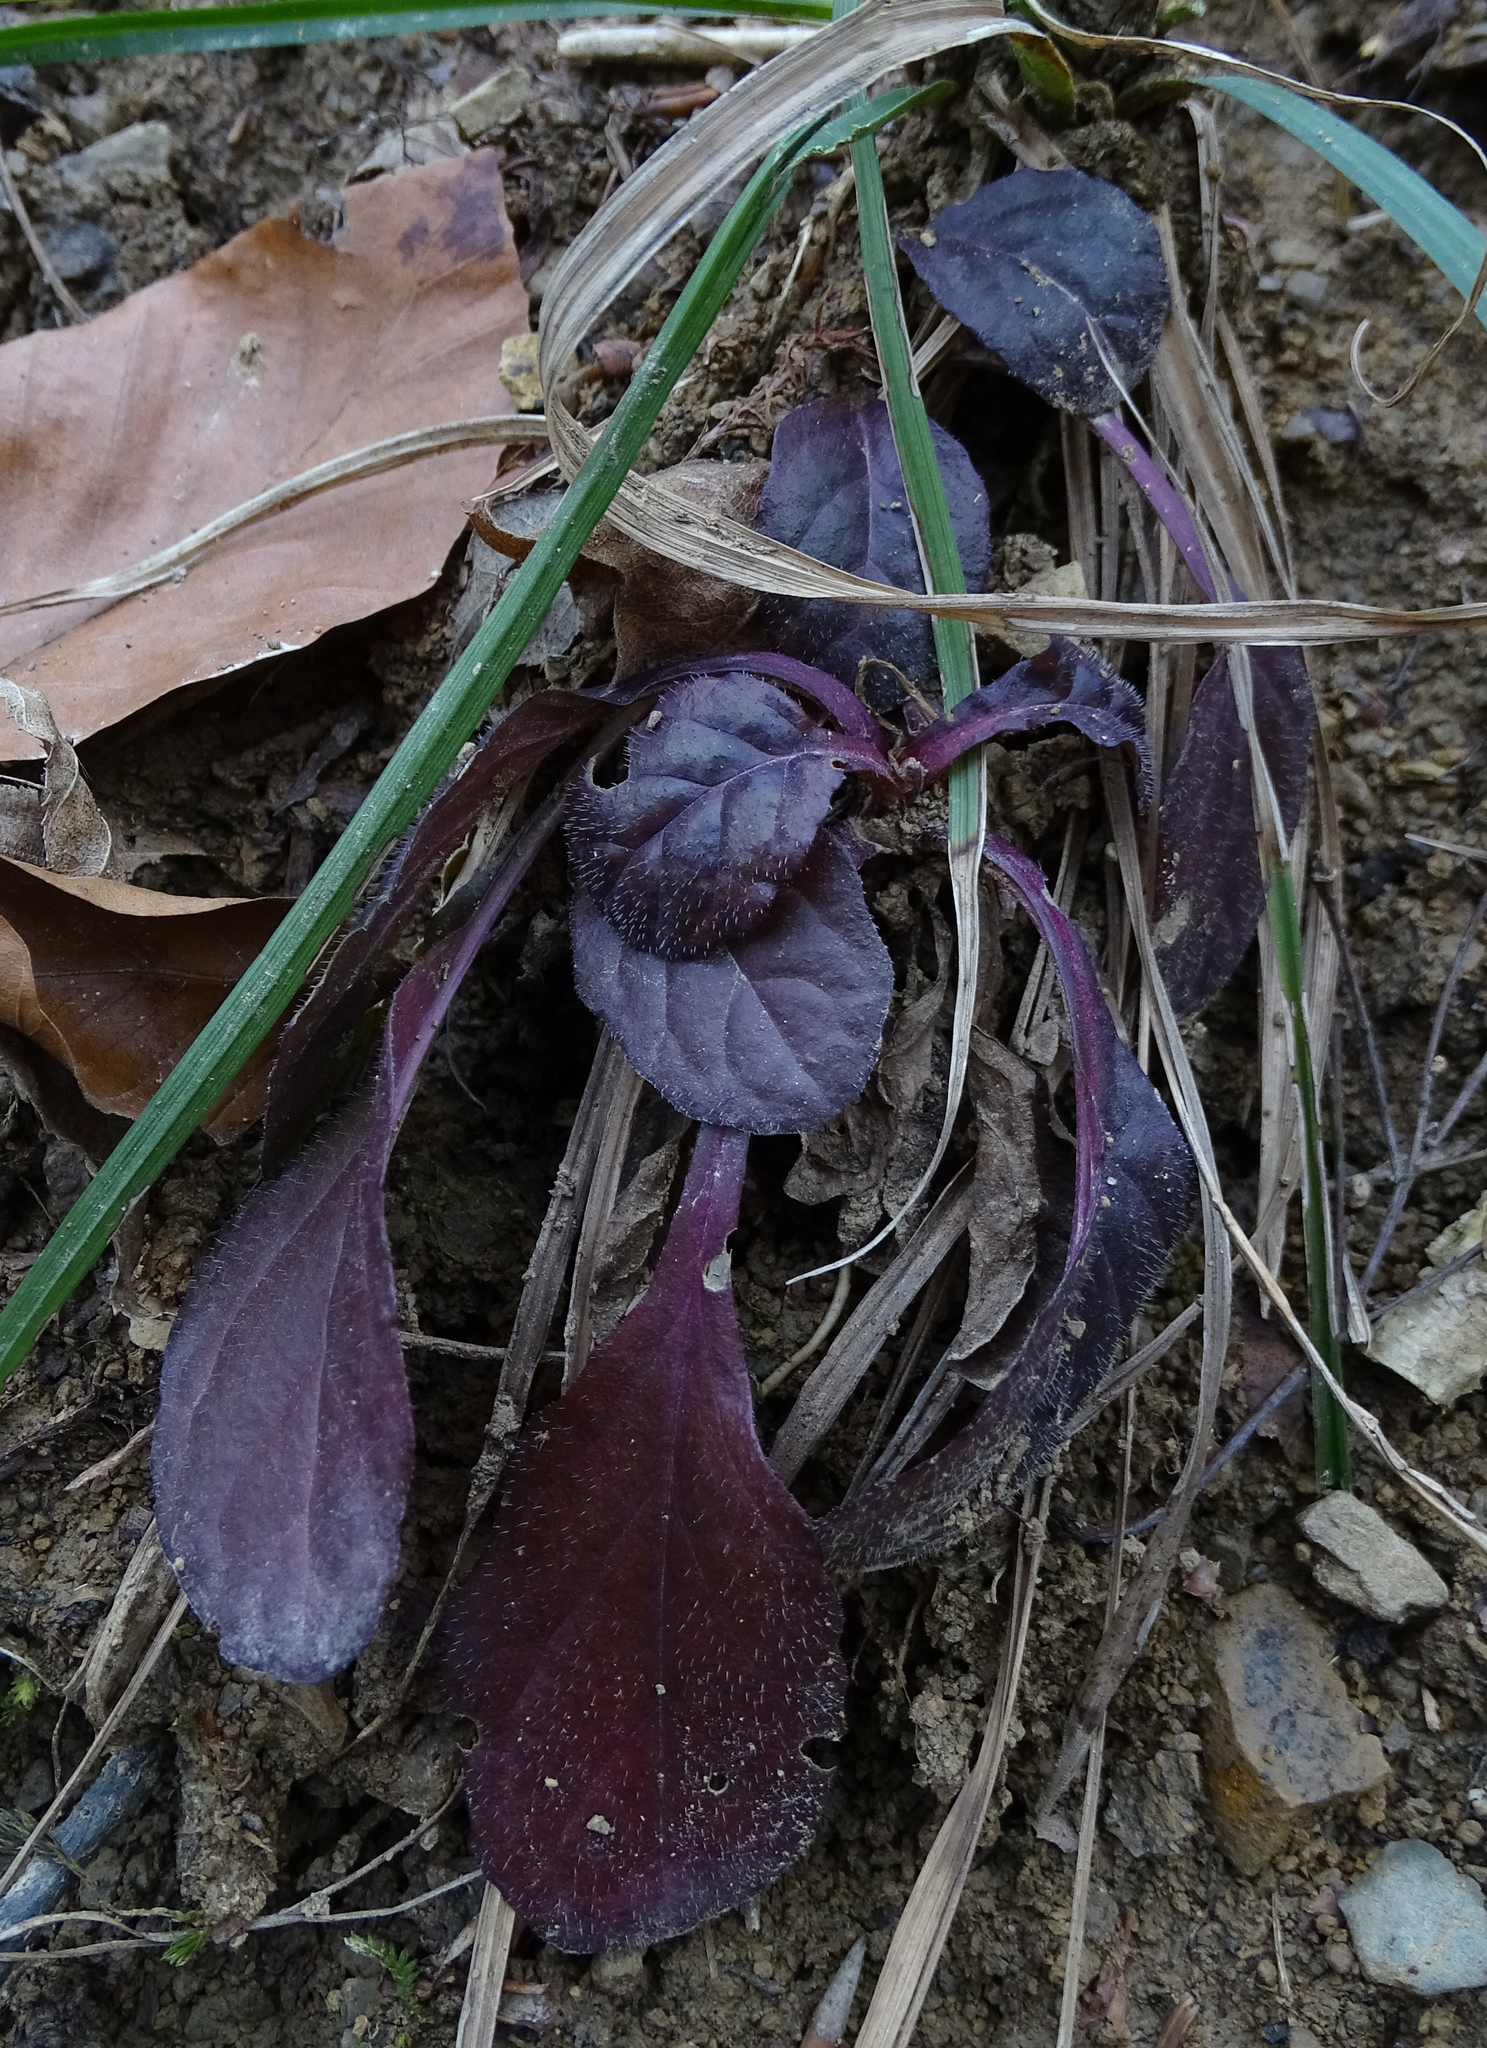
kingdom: Plantae
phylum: Tracheophyta
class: Magnoliopsida
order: Lamiales
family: Lamiaceae
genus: Ajuga
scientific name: Ajuga reptans
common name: Bugle
